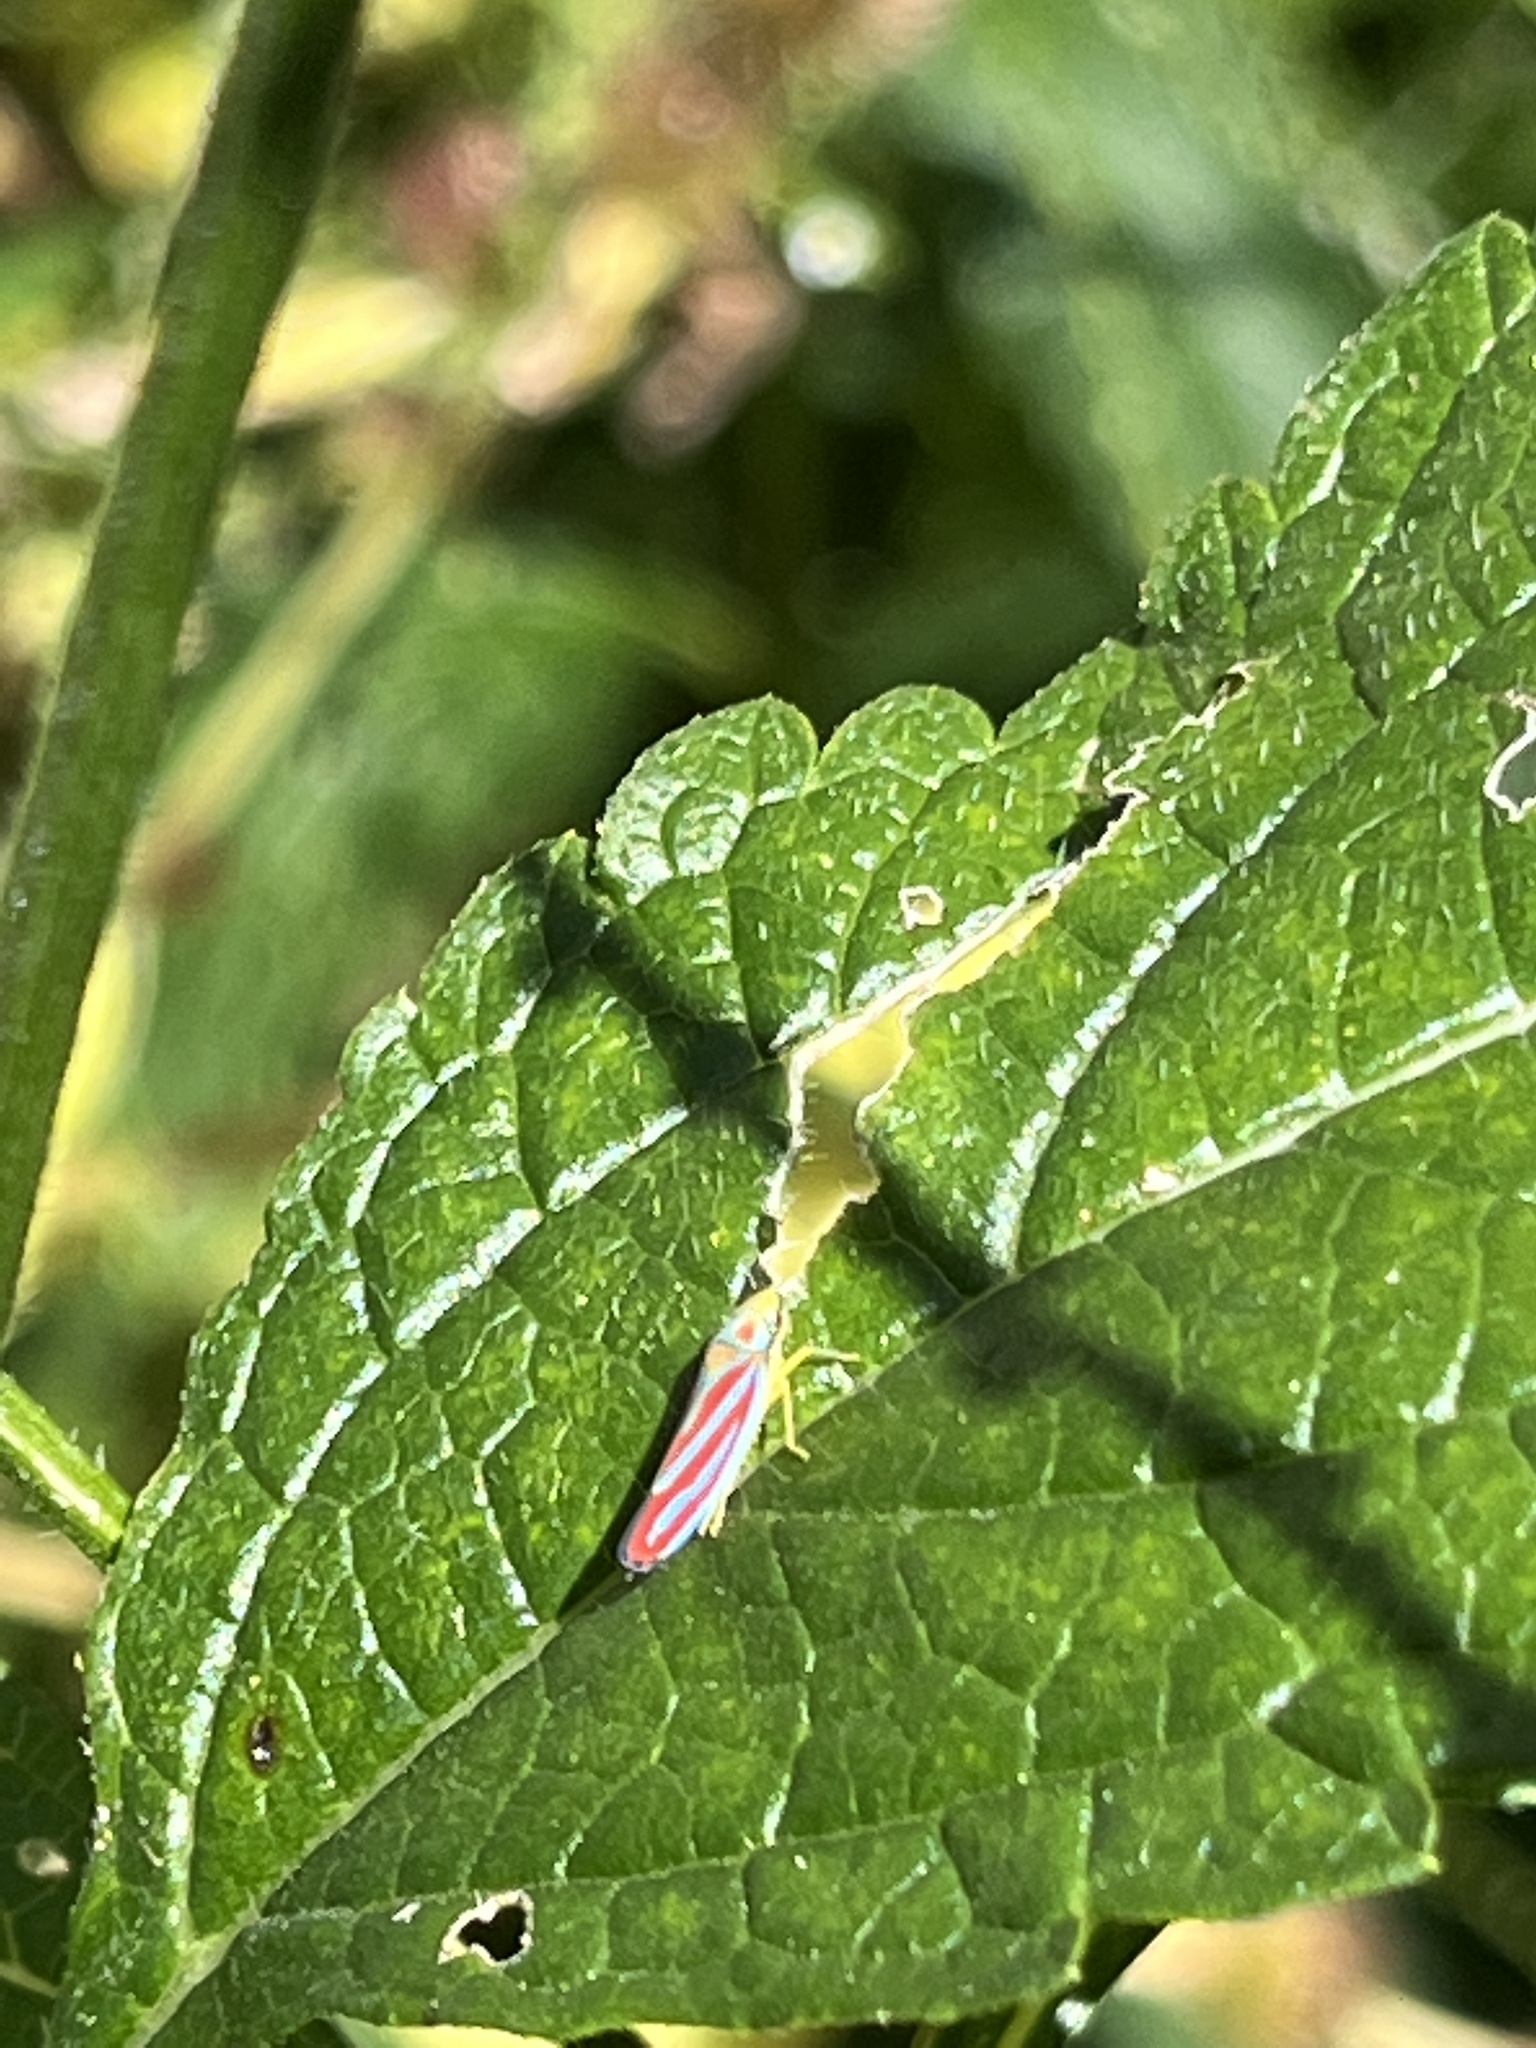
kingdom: Animalia
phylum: Arthropoda
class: Insecta
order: Hemiptera
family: Cicadellidae
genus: Graphocephala
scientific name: Graphocephala coccinea
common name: Candy-striped leafhopper
